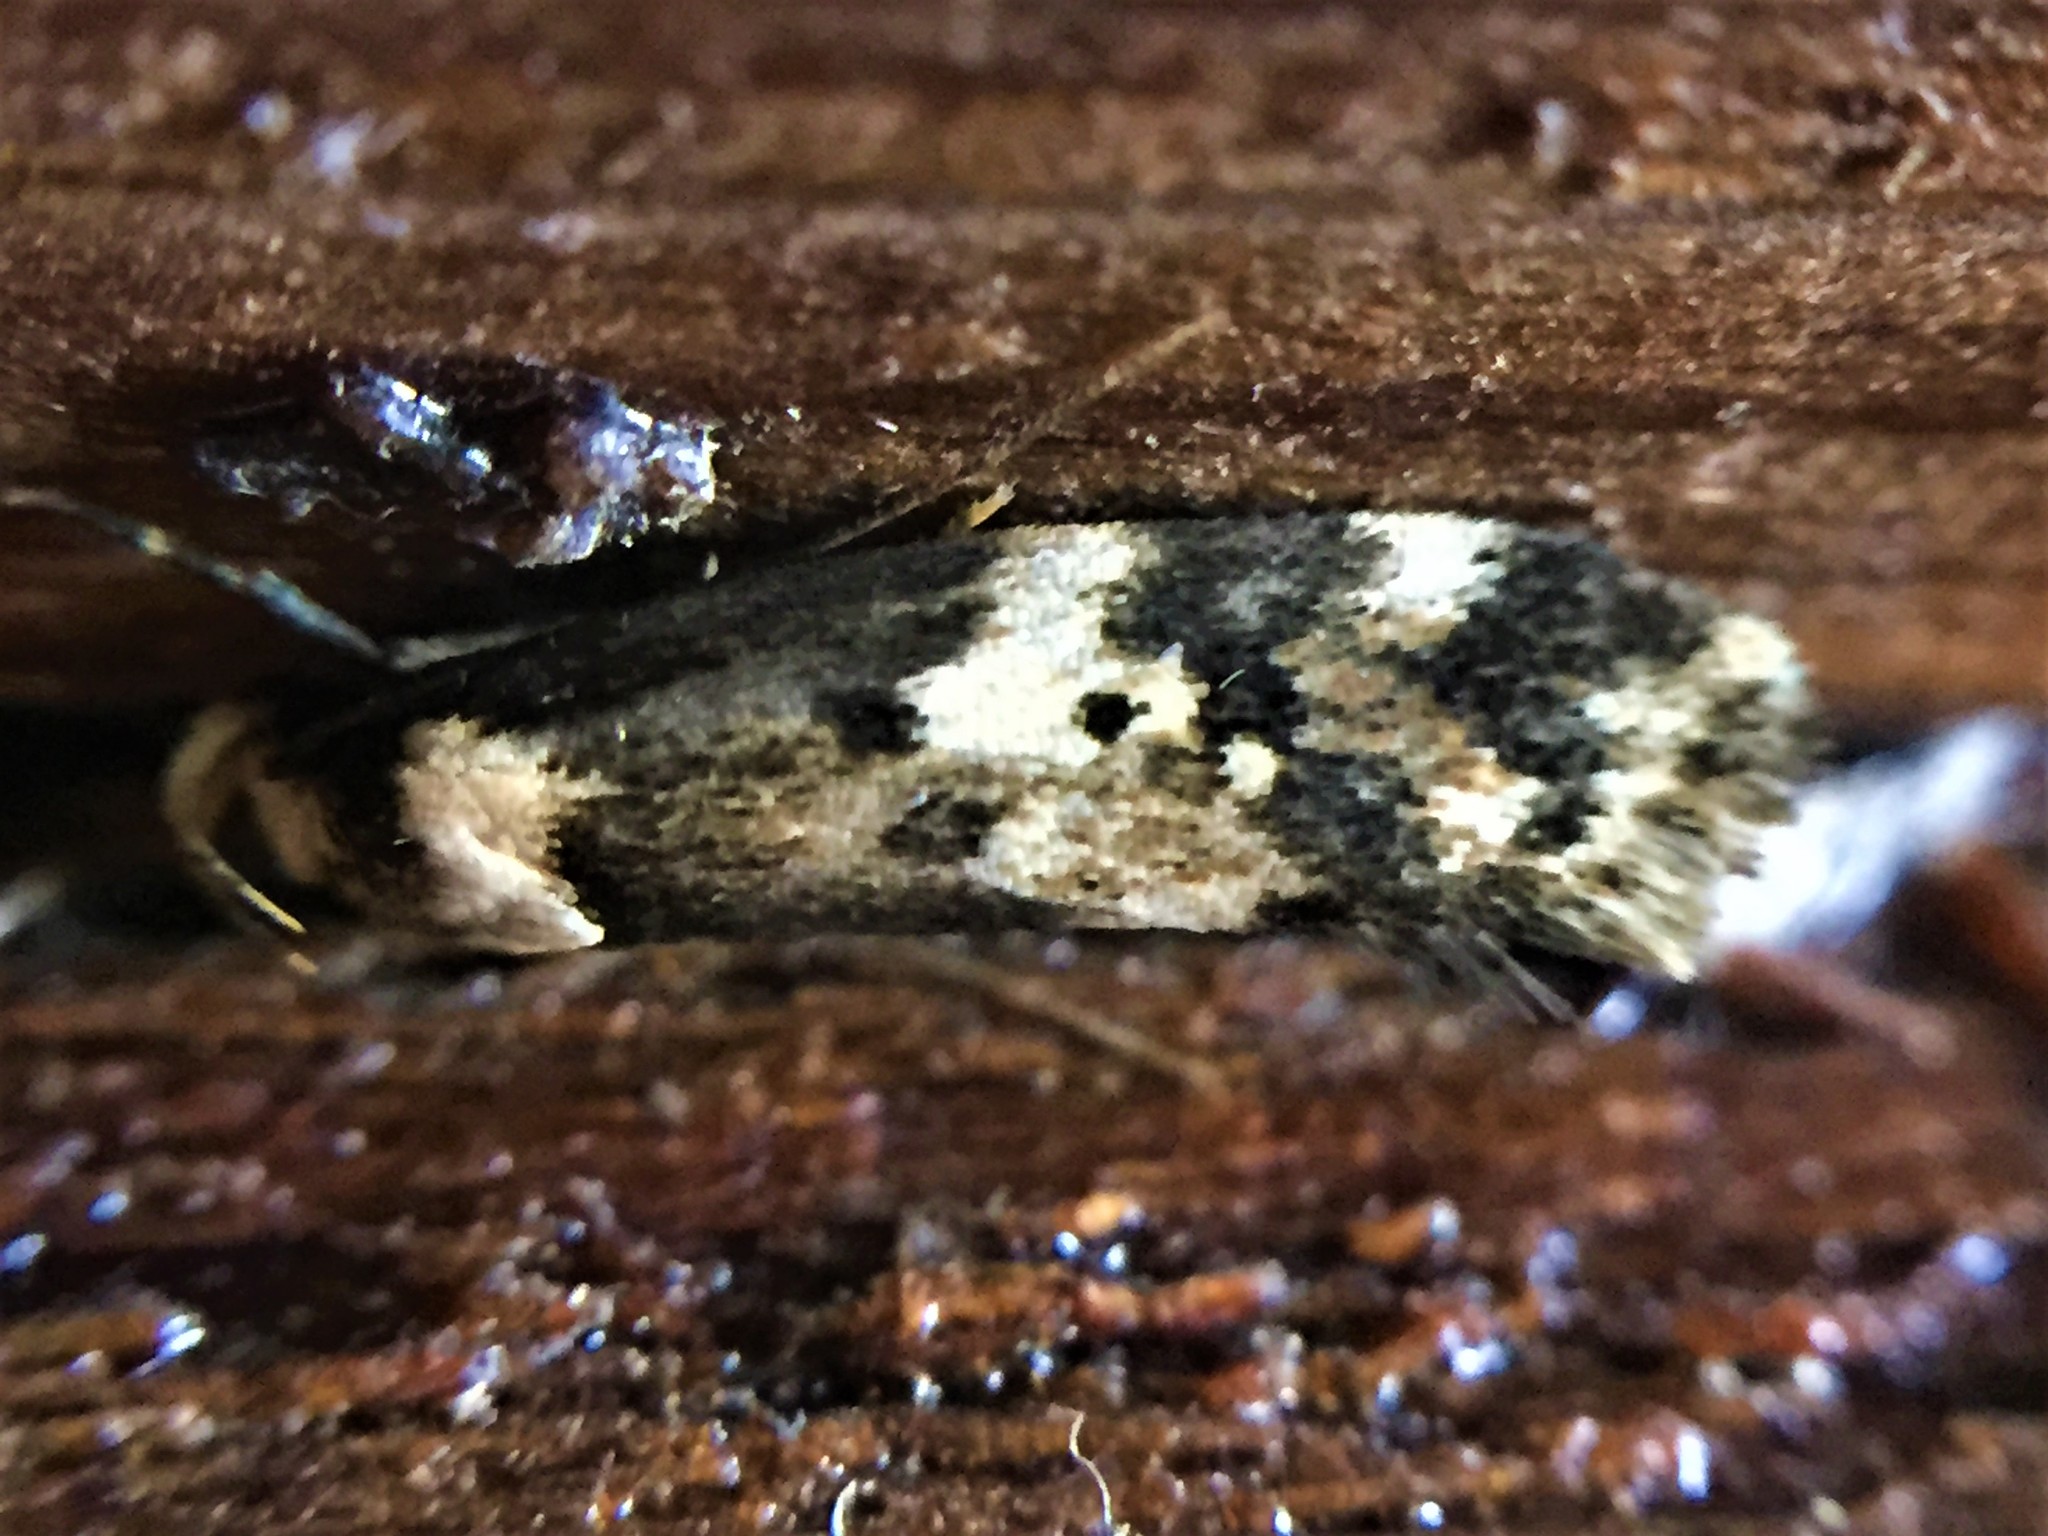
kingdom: Animalia
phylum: Arthropoda
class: Insecta
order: Lepidoptera
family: Oecophoridae
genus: Sphyrelata
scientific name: Sphyrelata amotella
